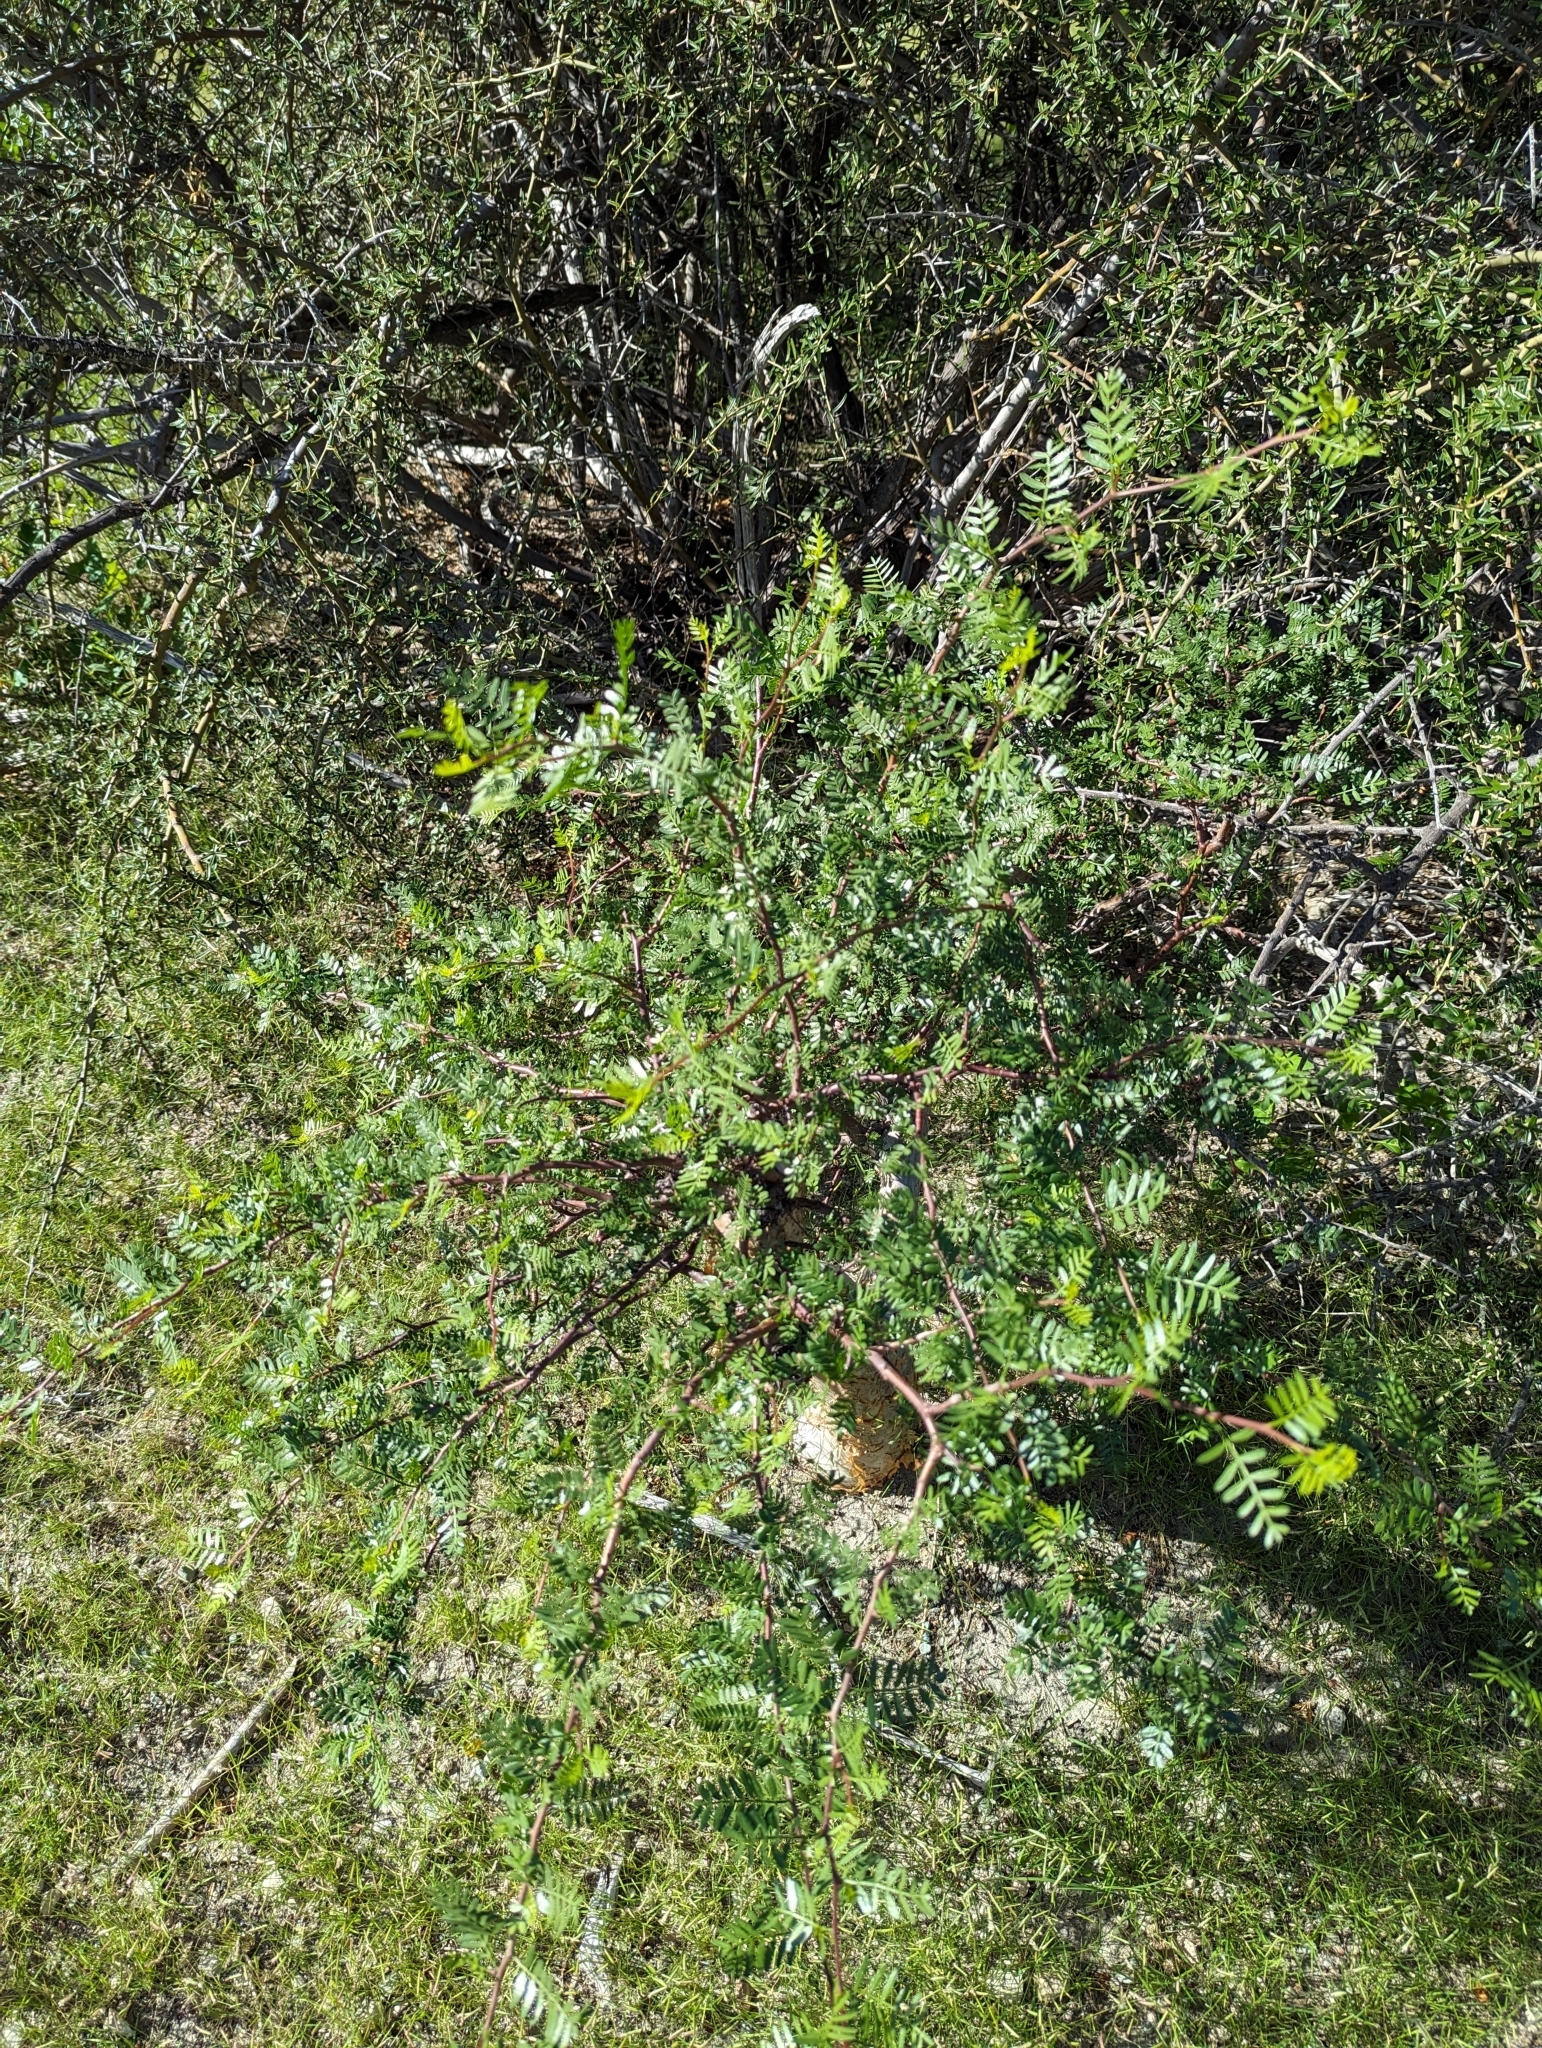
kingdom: Plantae
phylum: Tracheophyta
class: Magnoliopsida
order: Sapindales
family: Burseraceae
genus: Bursera
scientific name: Bursera microphylla
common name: Elephant tree
